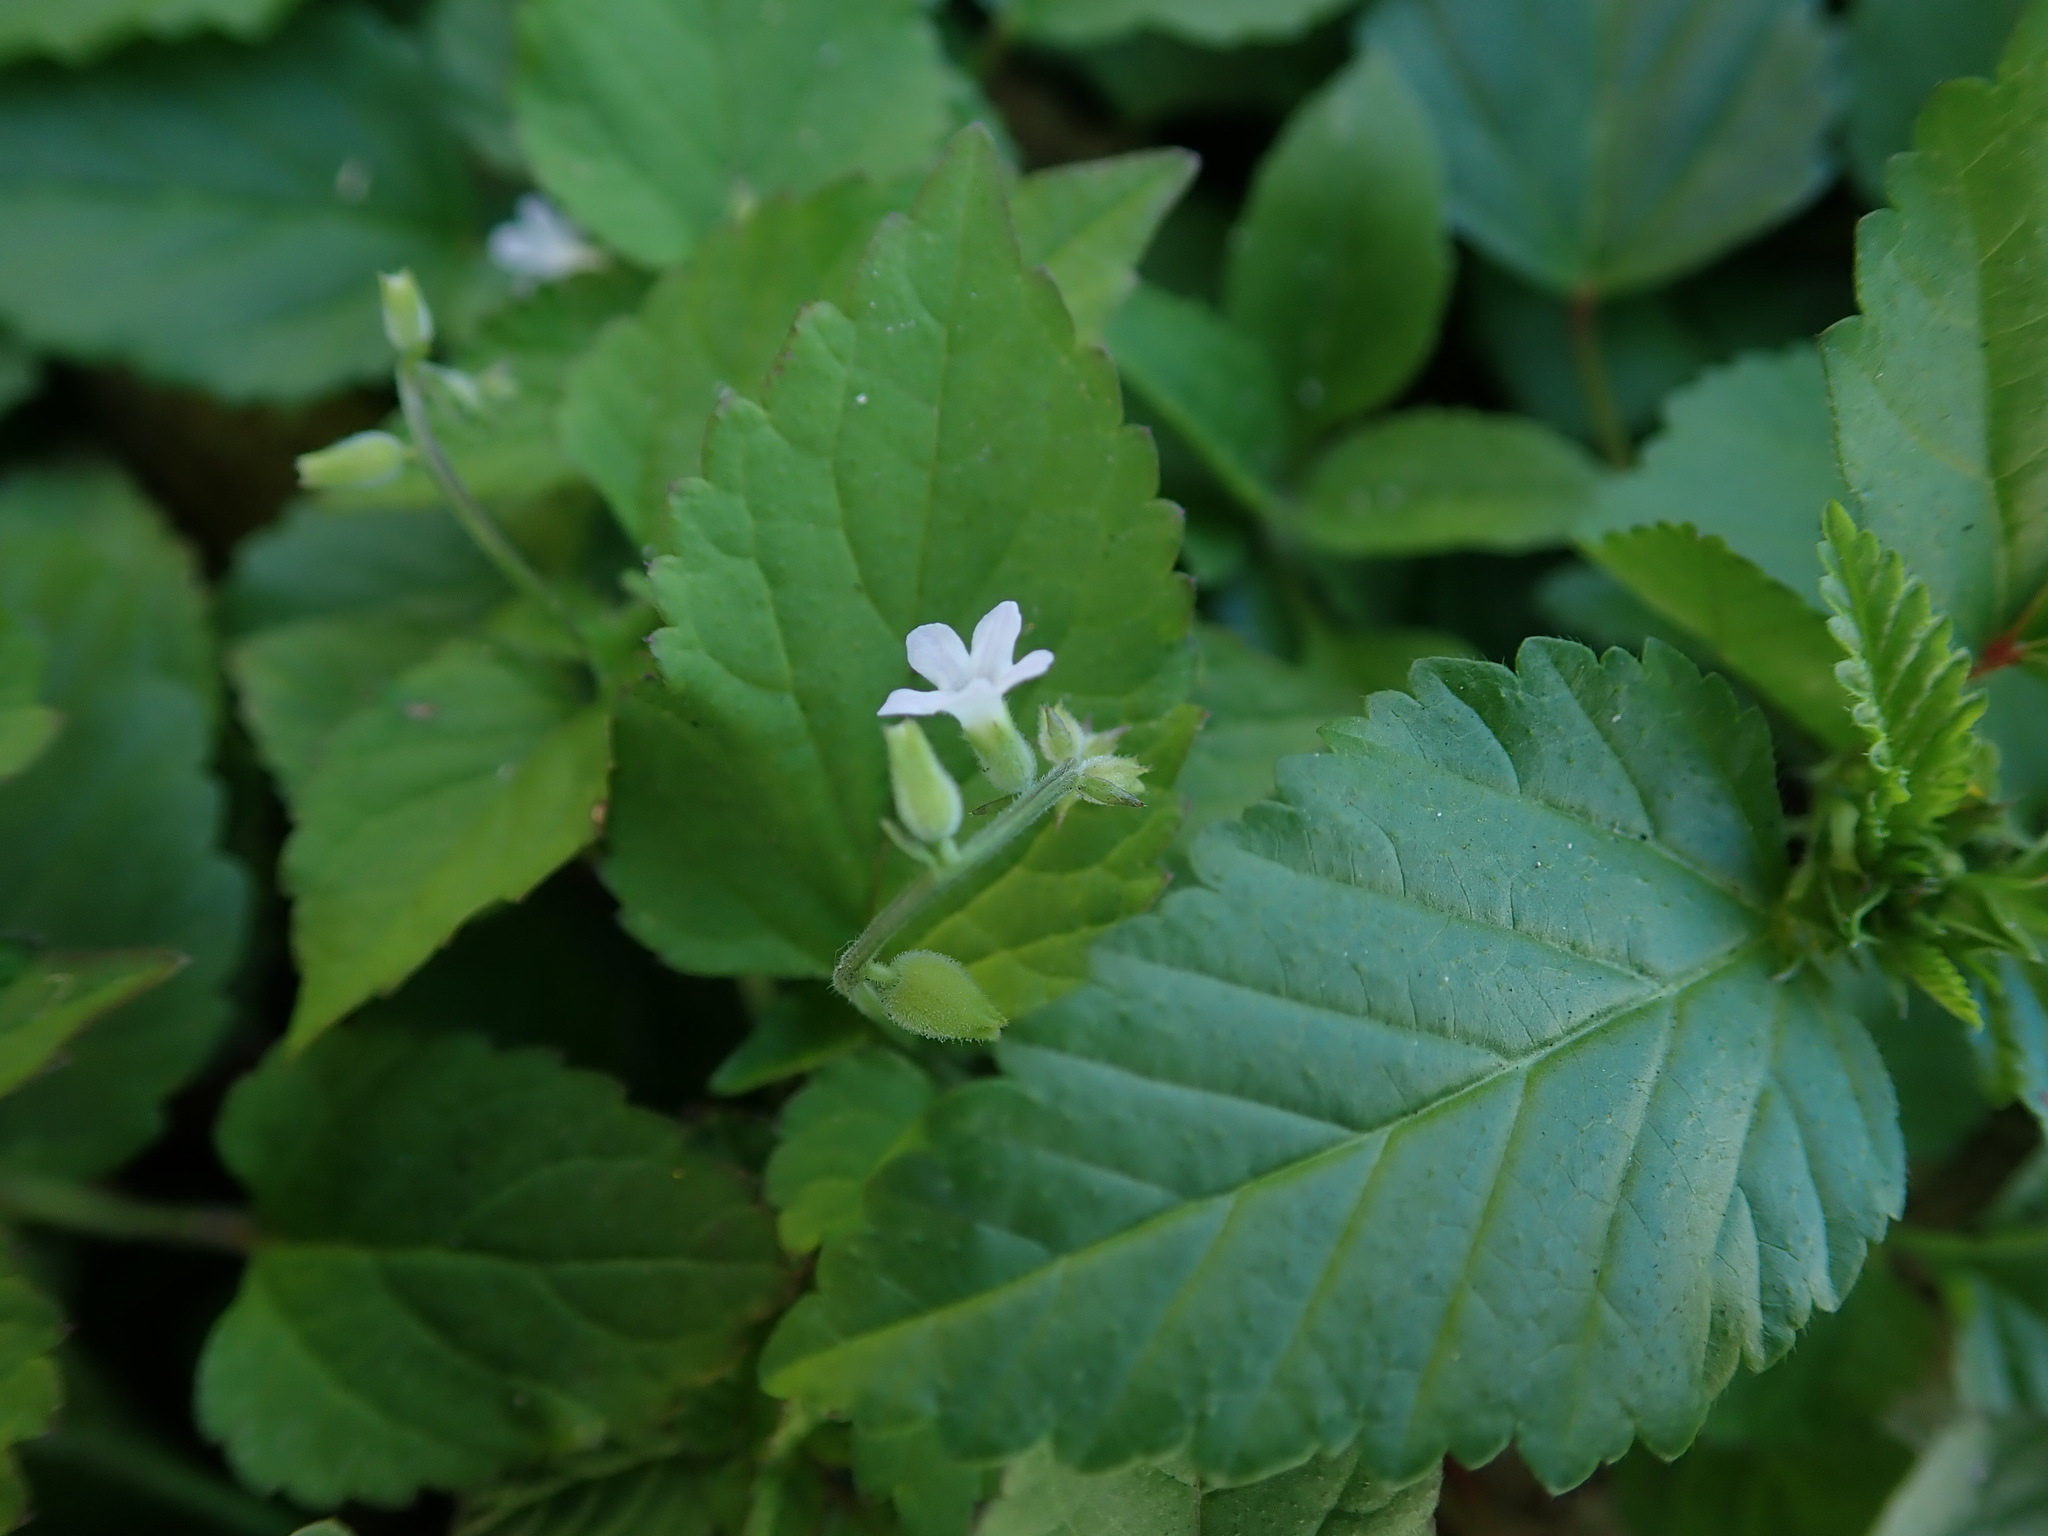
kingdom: Plantae
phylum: Tracheophyta
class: Magnoliopsida
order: Lamiales
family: Verbenaceae
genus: Priva
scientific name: Priva lappulacea
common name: Fasten-'pon-coat
